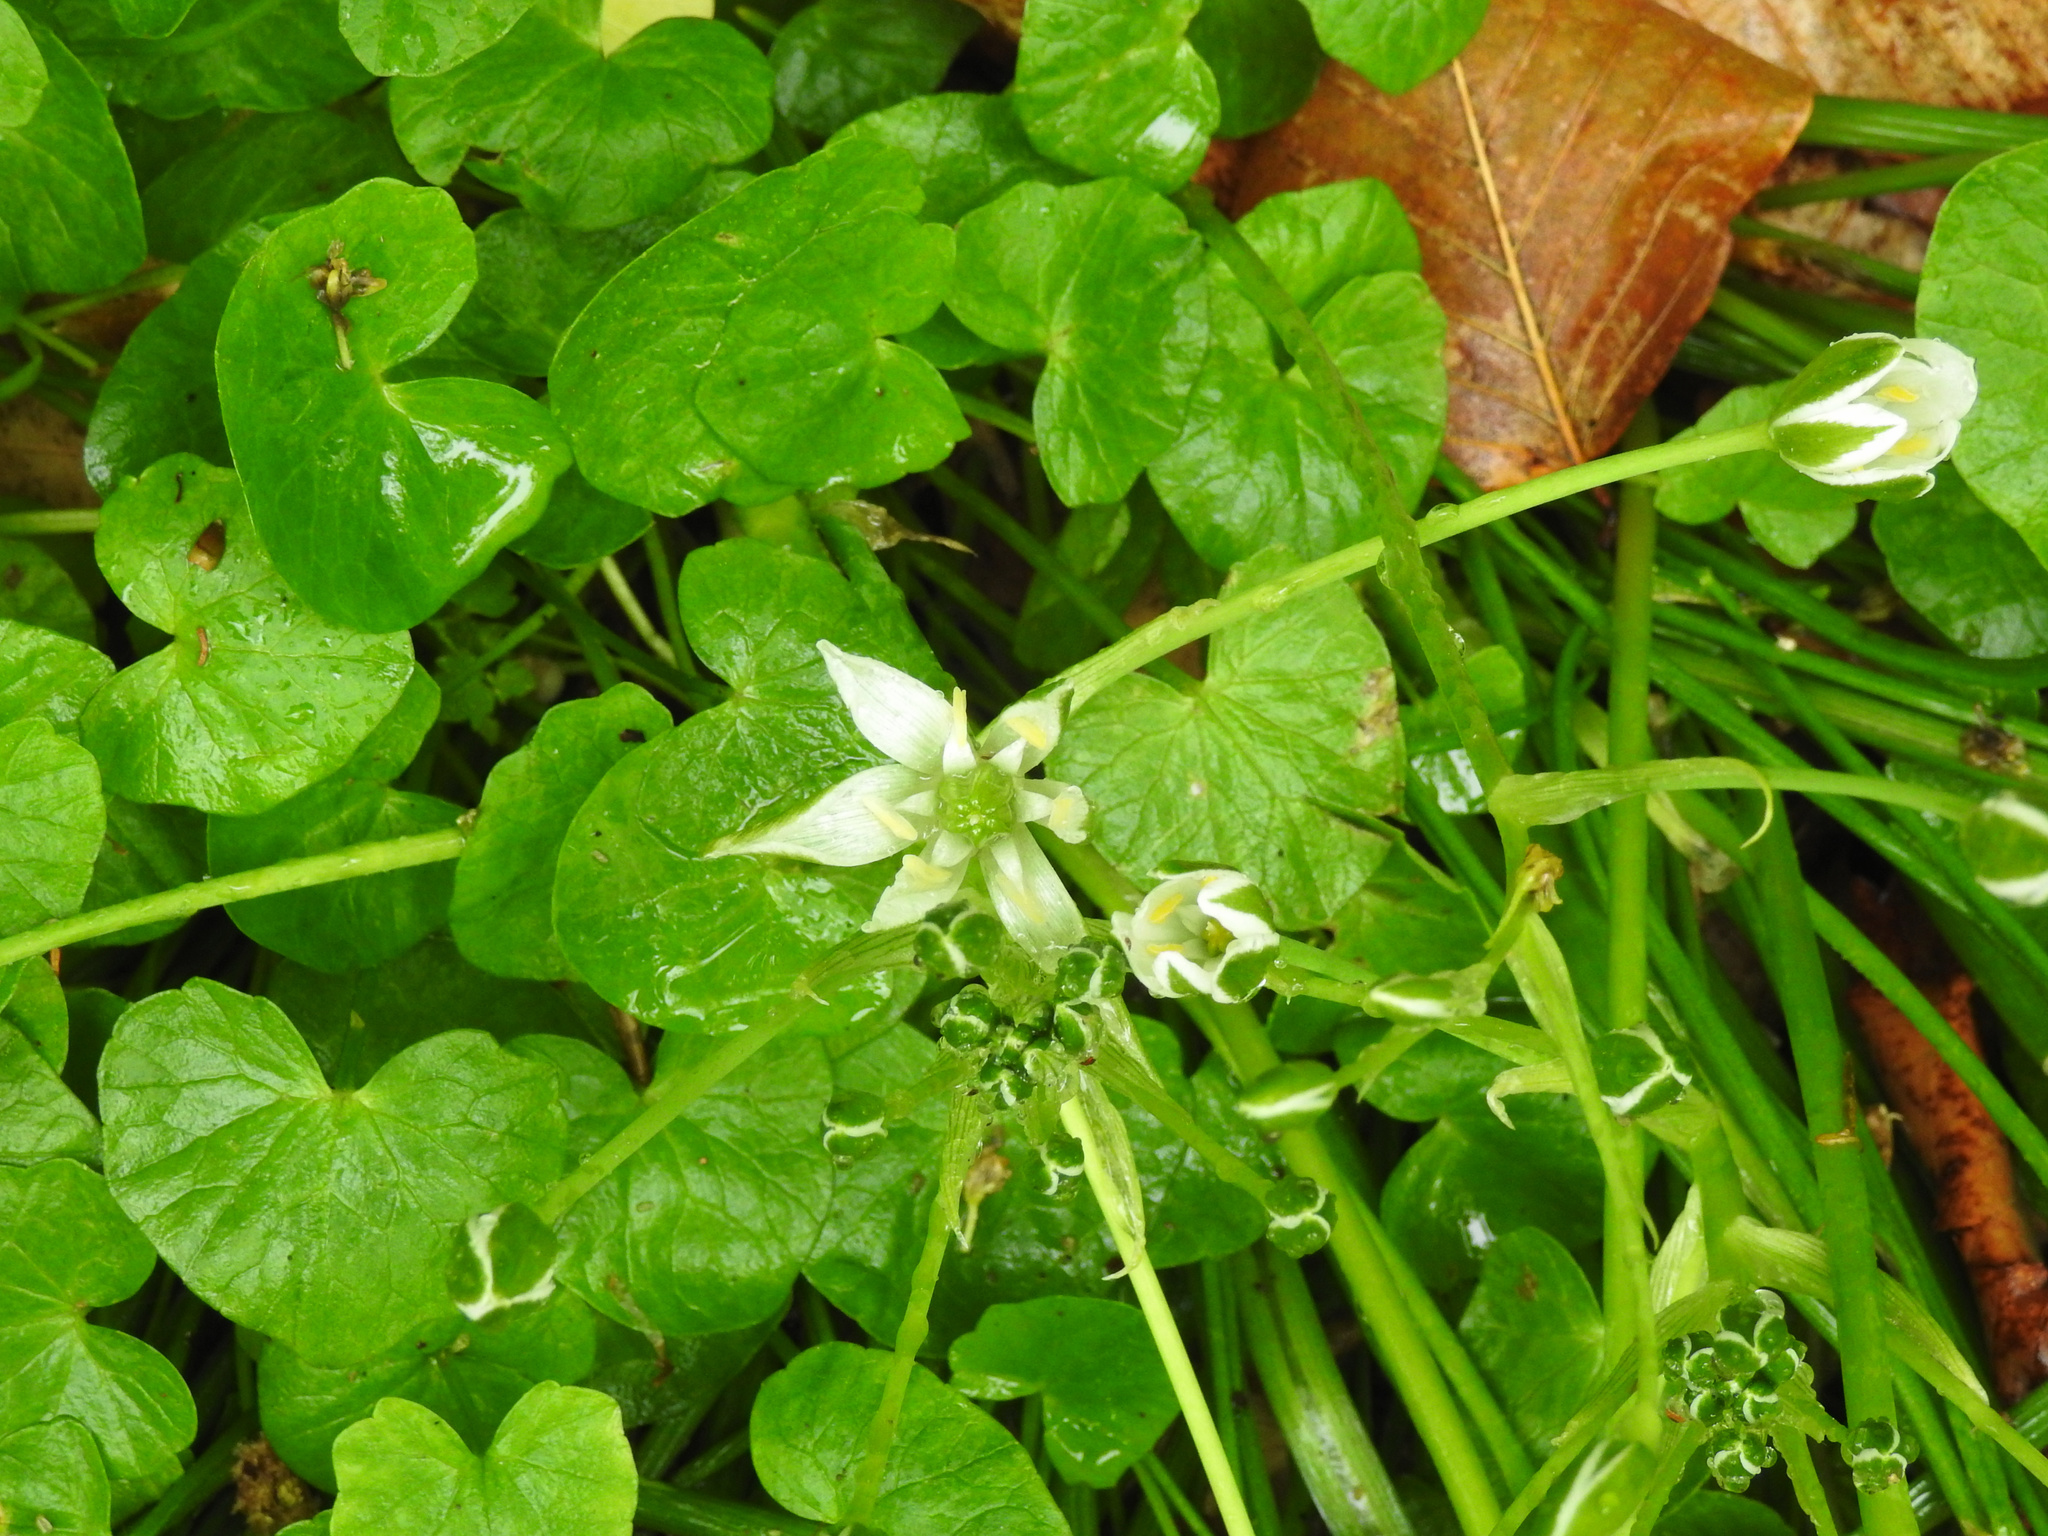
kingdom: Plantae
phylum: Tracheophyta
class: Liliopsida
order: Asparagales
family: Asparagaceae
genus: Ornithogalum
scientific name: Ornithogalum umbellatum
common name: Garden star-of-bethlehem
